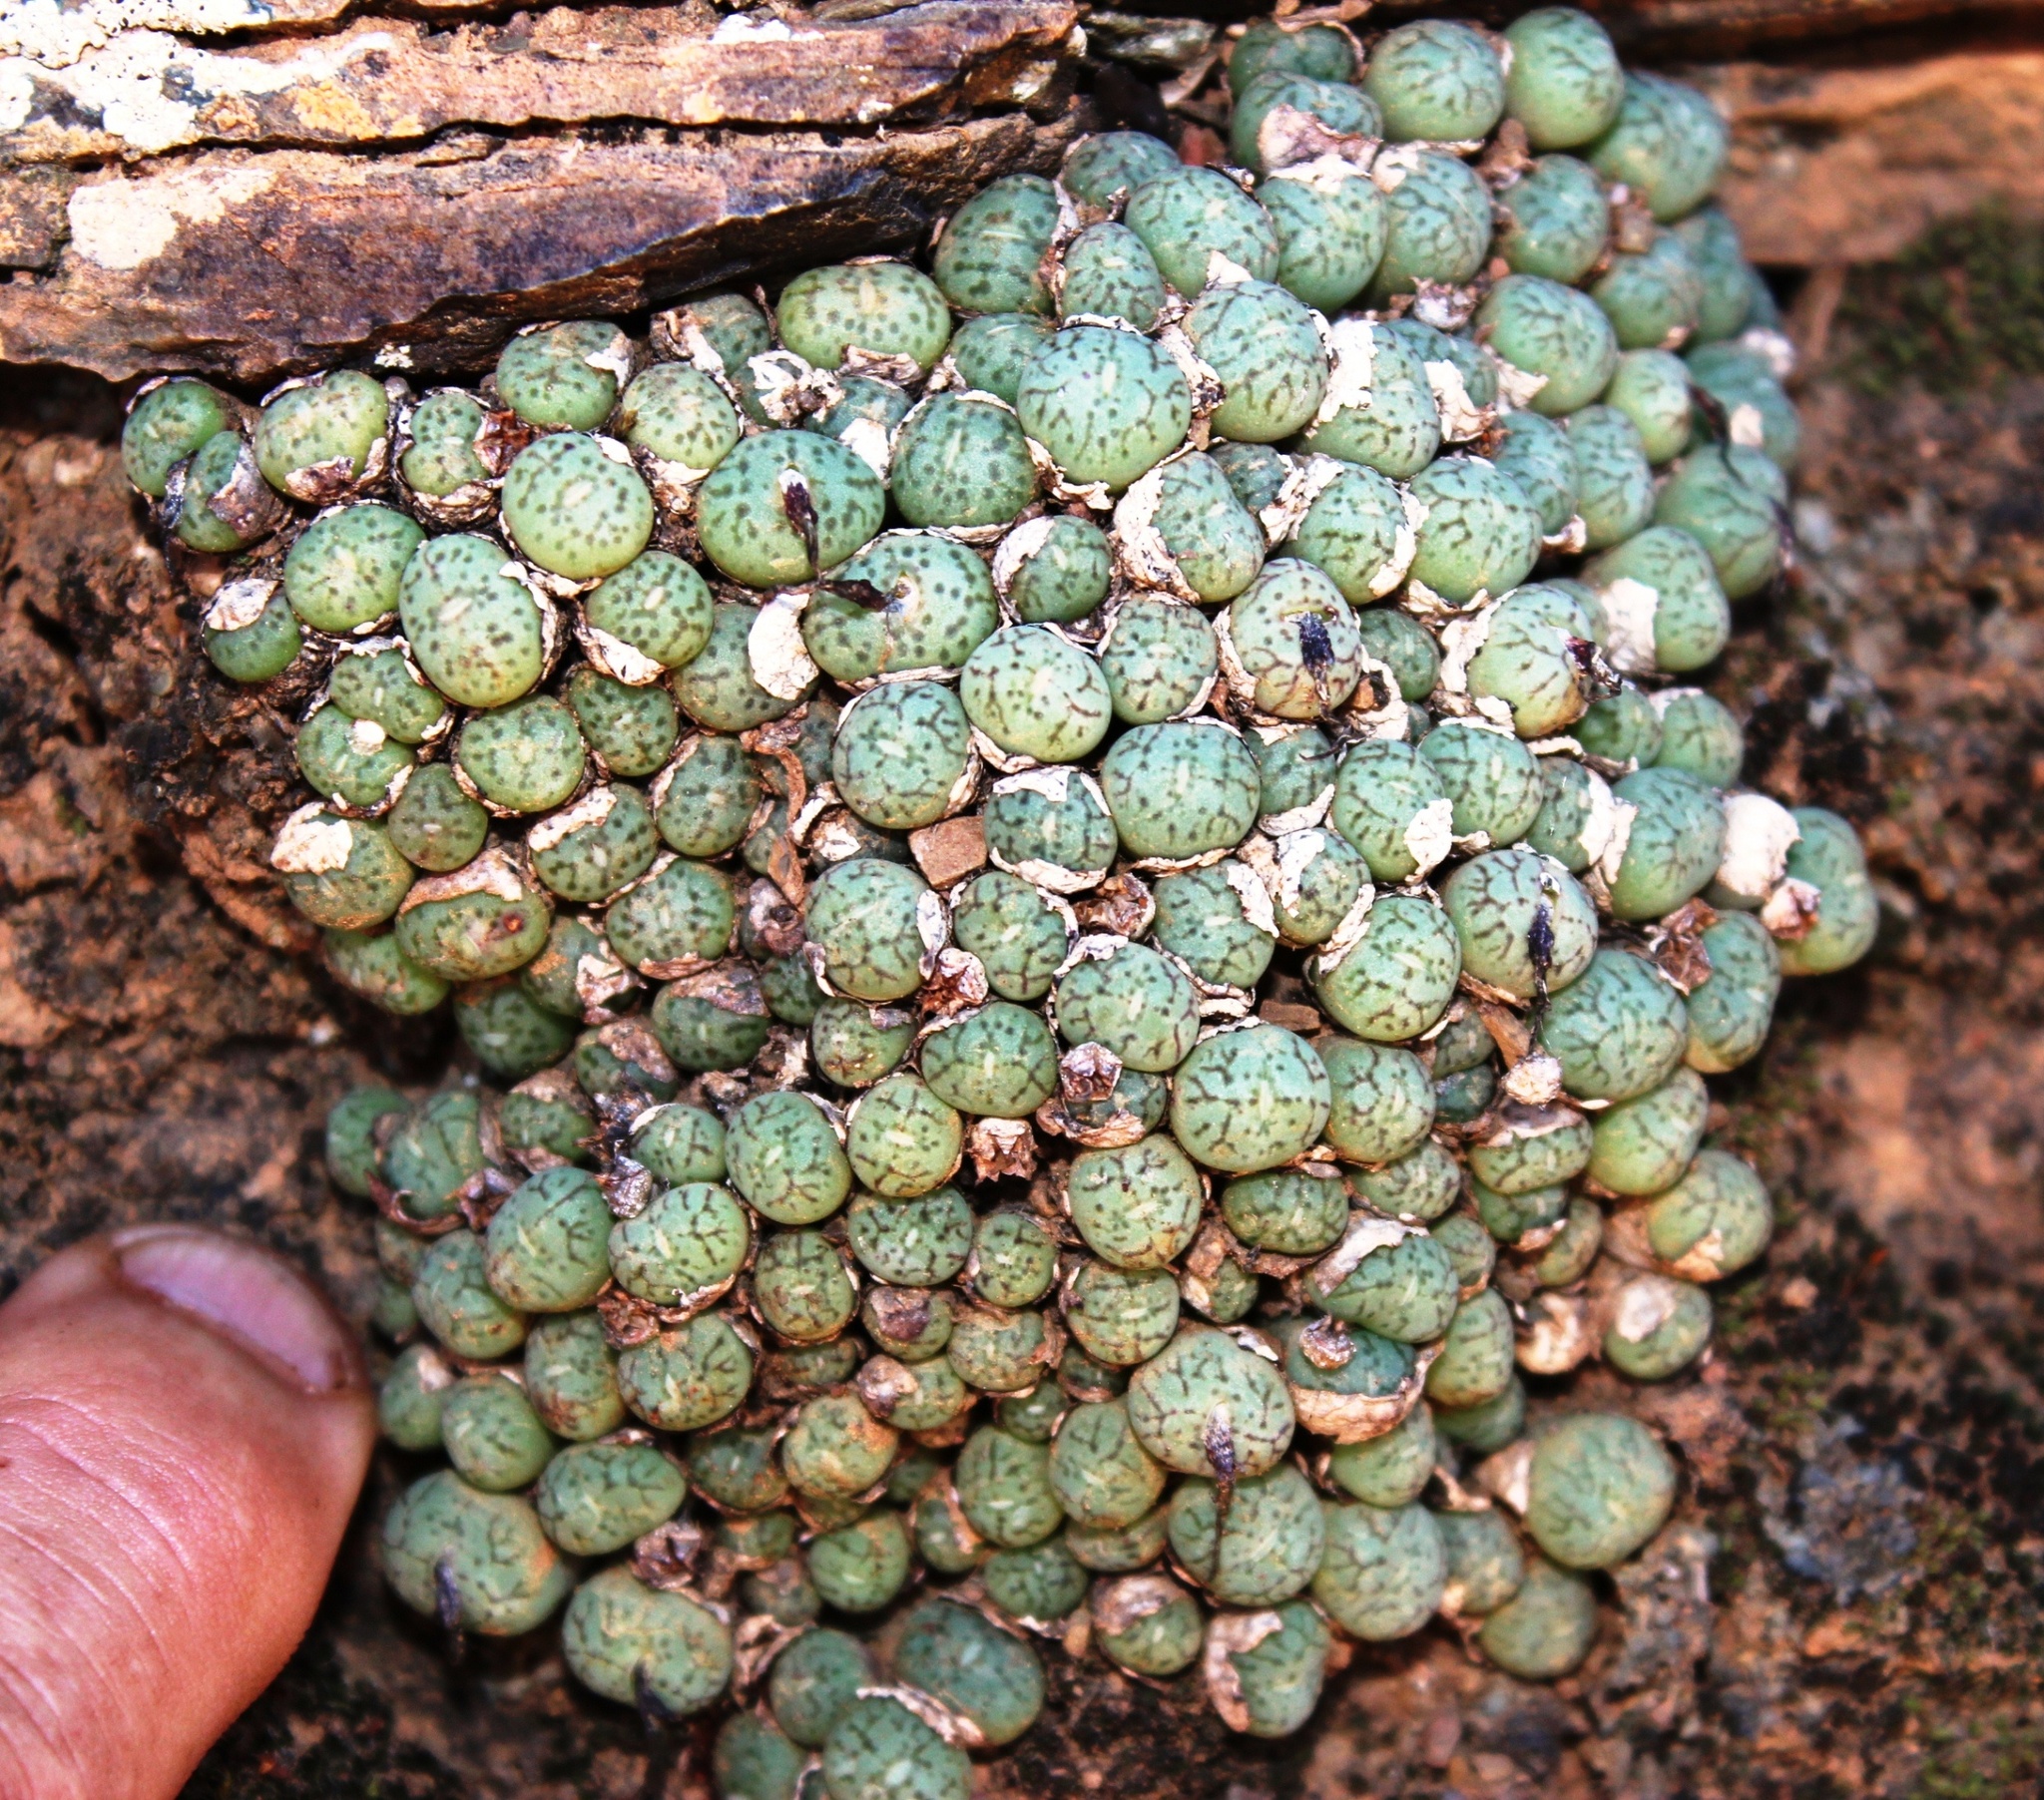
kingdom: Plantae
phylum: Tracheophyta
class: Magnoliopsida
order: Caryophyllales
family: Aizoaceae
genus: Conophytum
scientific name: Conophytum uviforme
